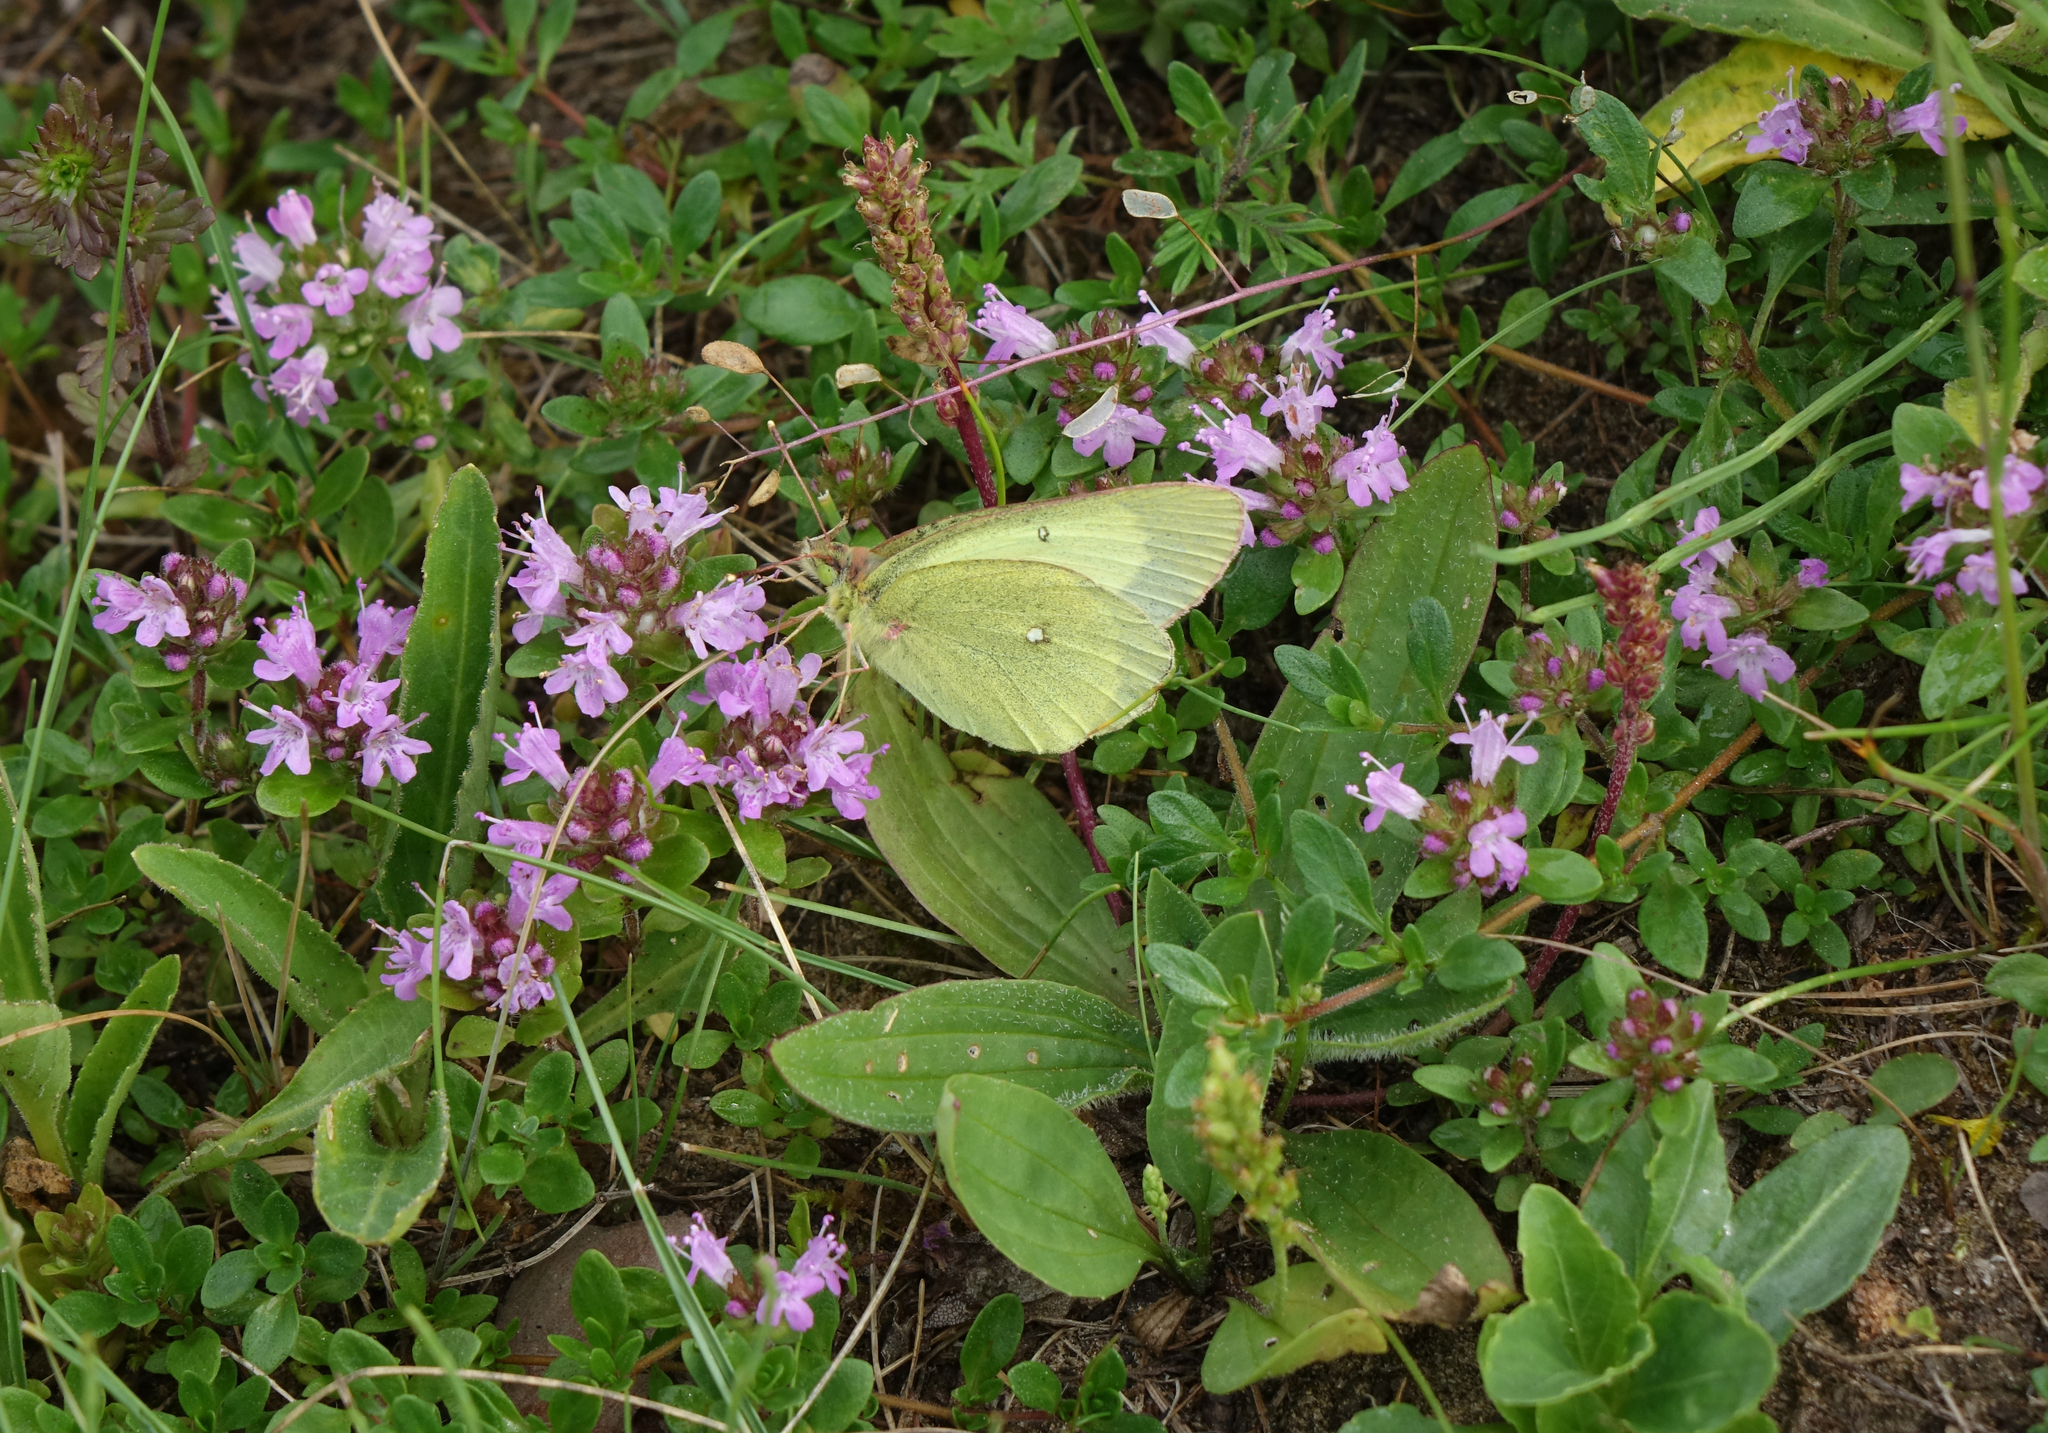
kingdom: Animalia
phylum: Arthropoda
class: Insecta
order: Lepidoptera
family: Pieridae
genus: Colias
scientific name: Colias palaeno
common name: Moorland clouded yellow
